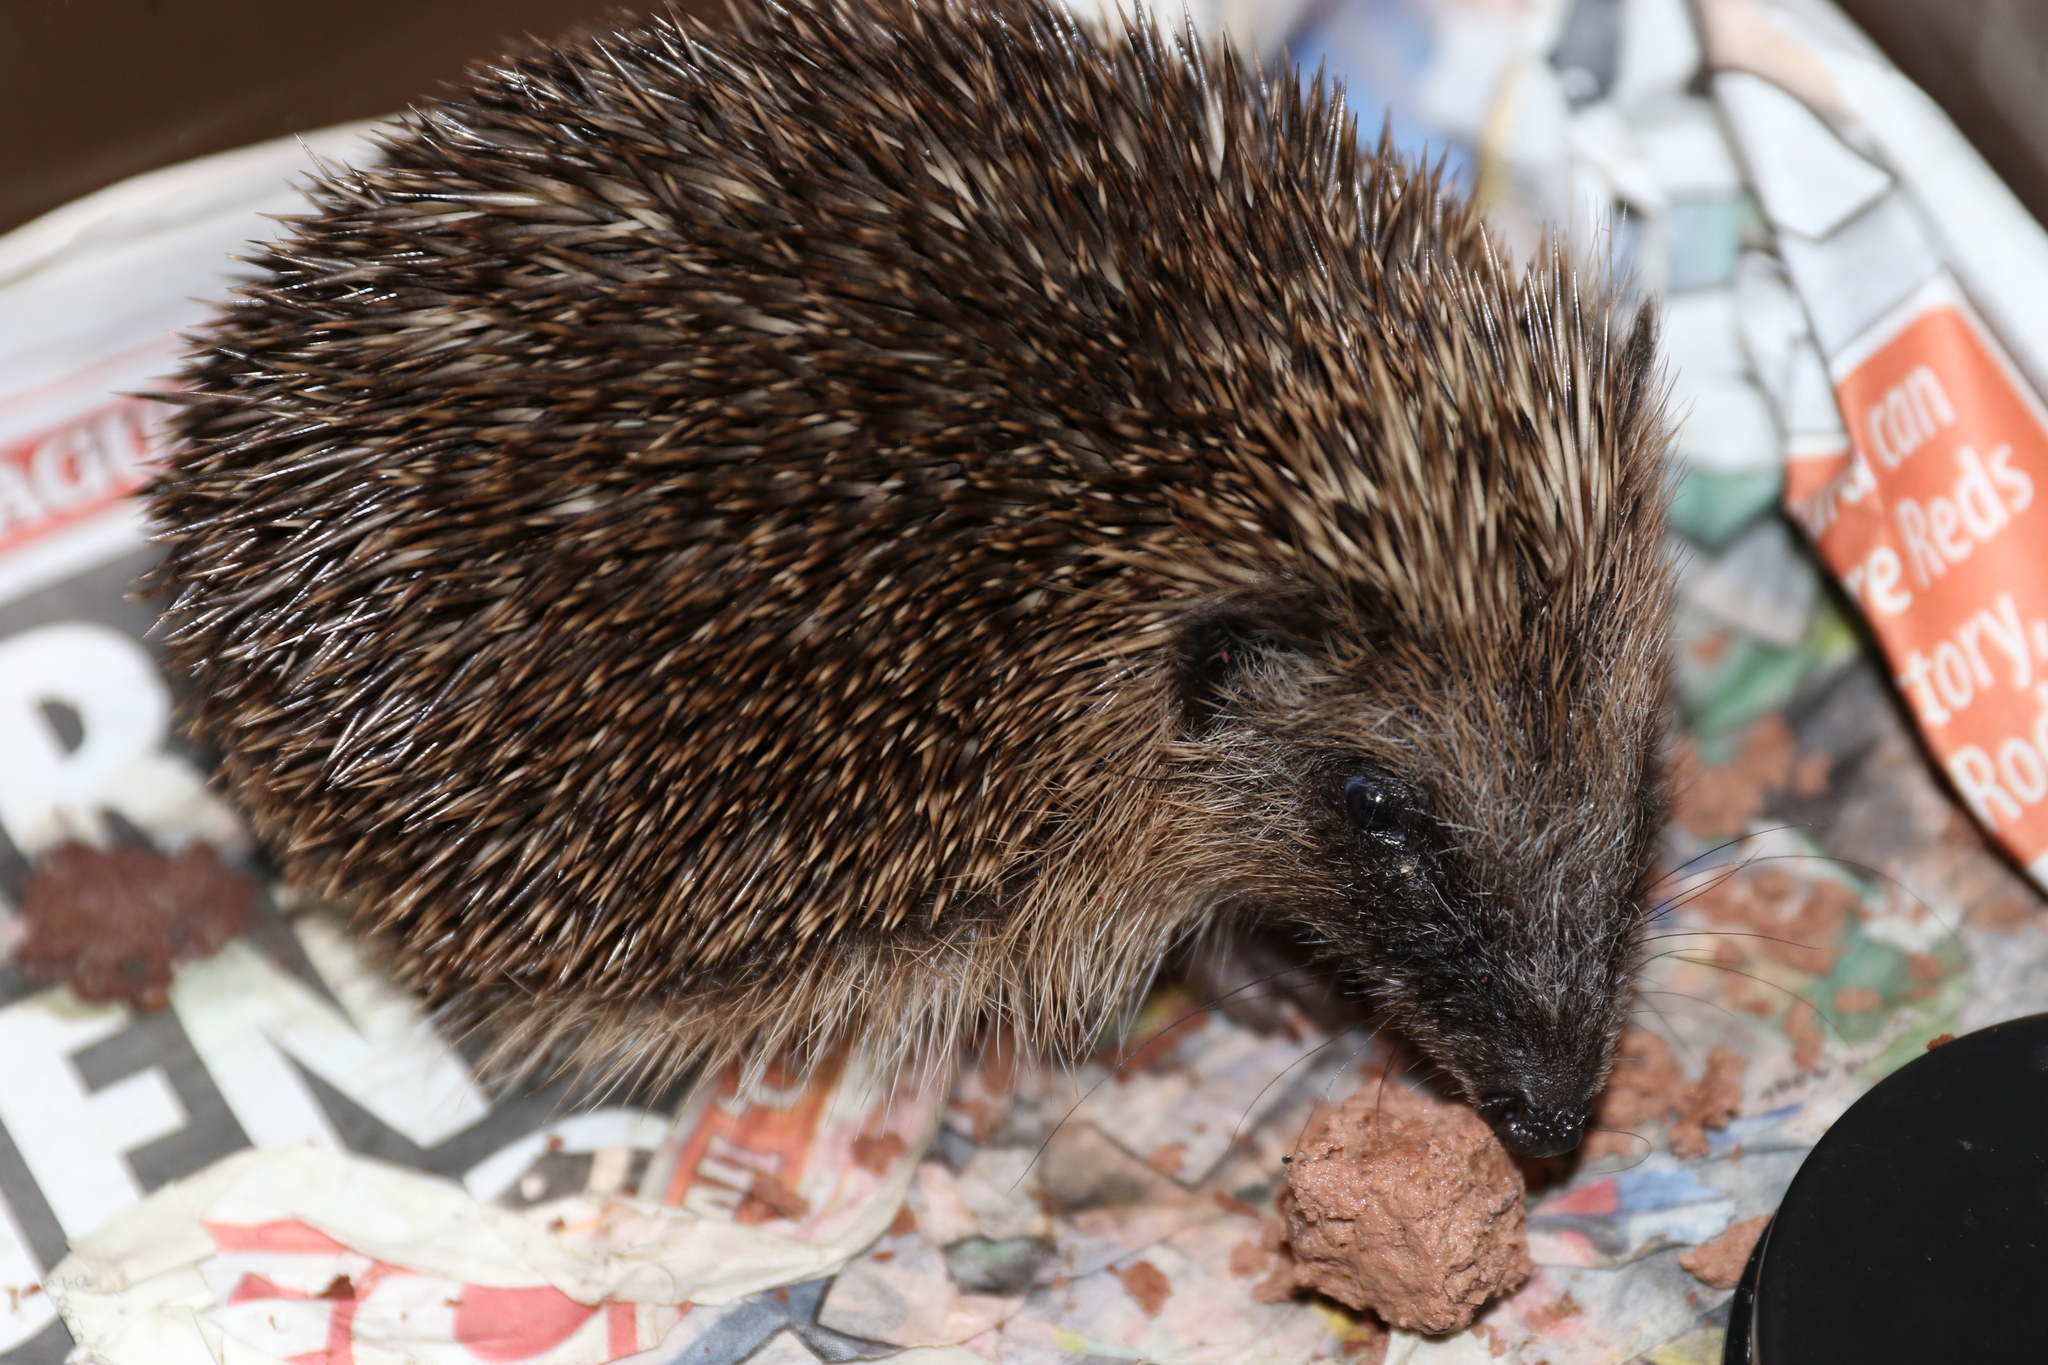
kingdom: Animalia
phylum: Chordata
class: Mammalia
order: Erinaceomorpha
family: Erinaceidae
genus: Erinaceus
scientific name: Erinaceus europaeus
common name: West european hedgehog
